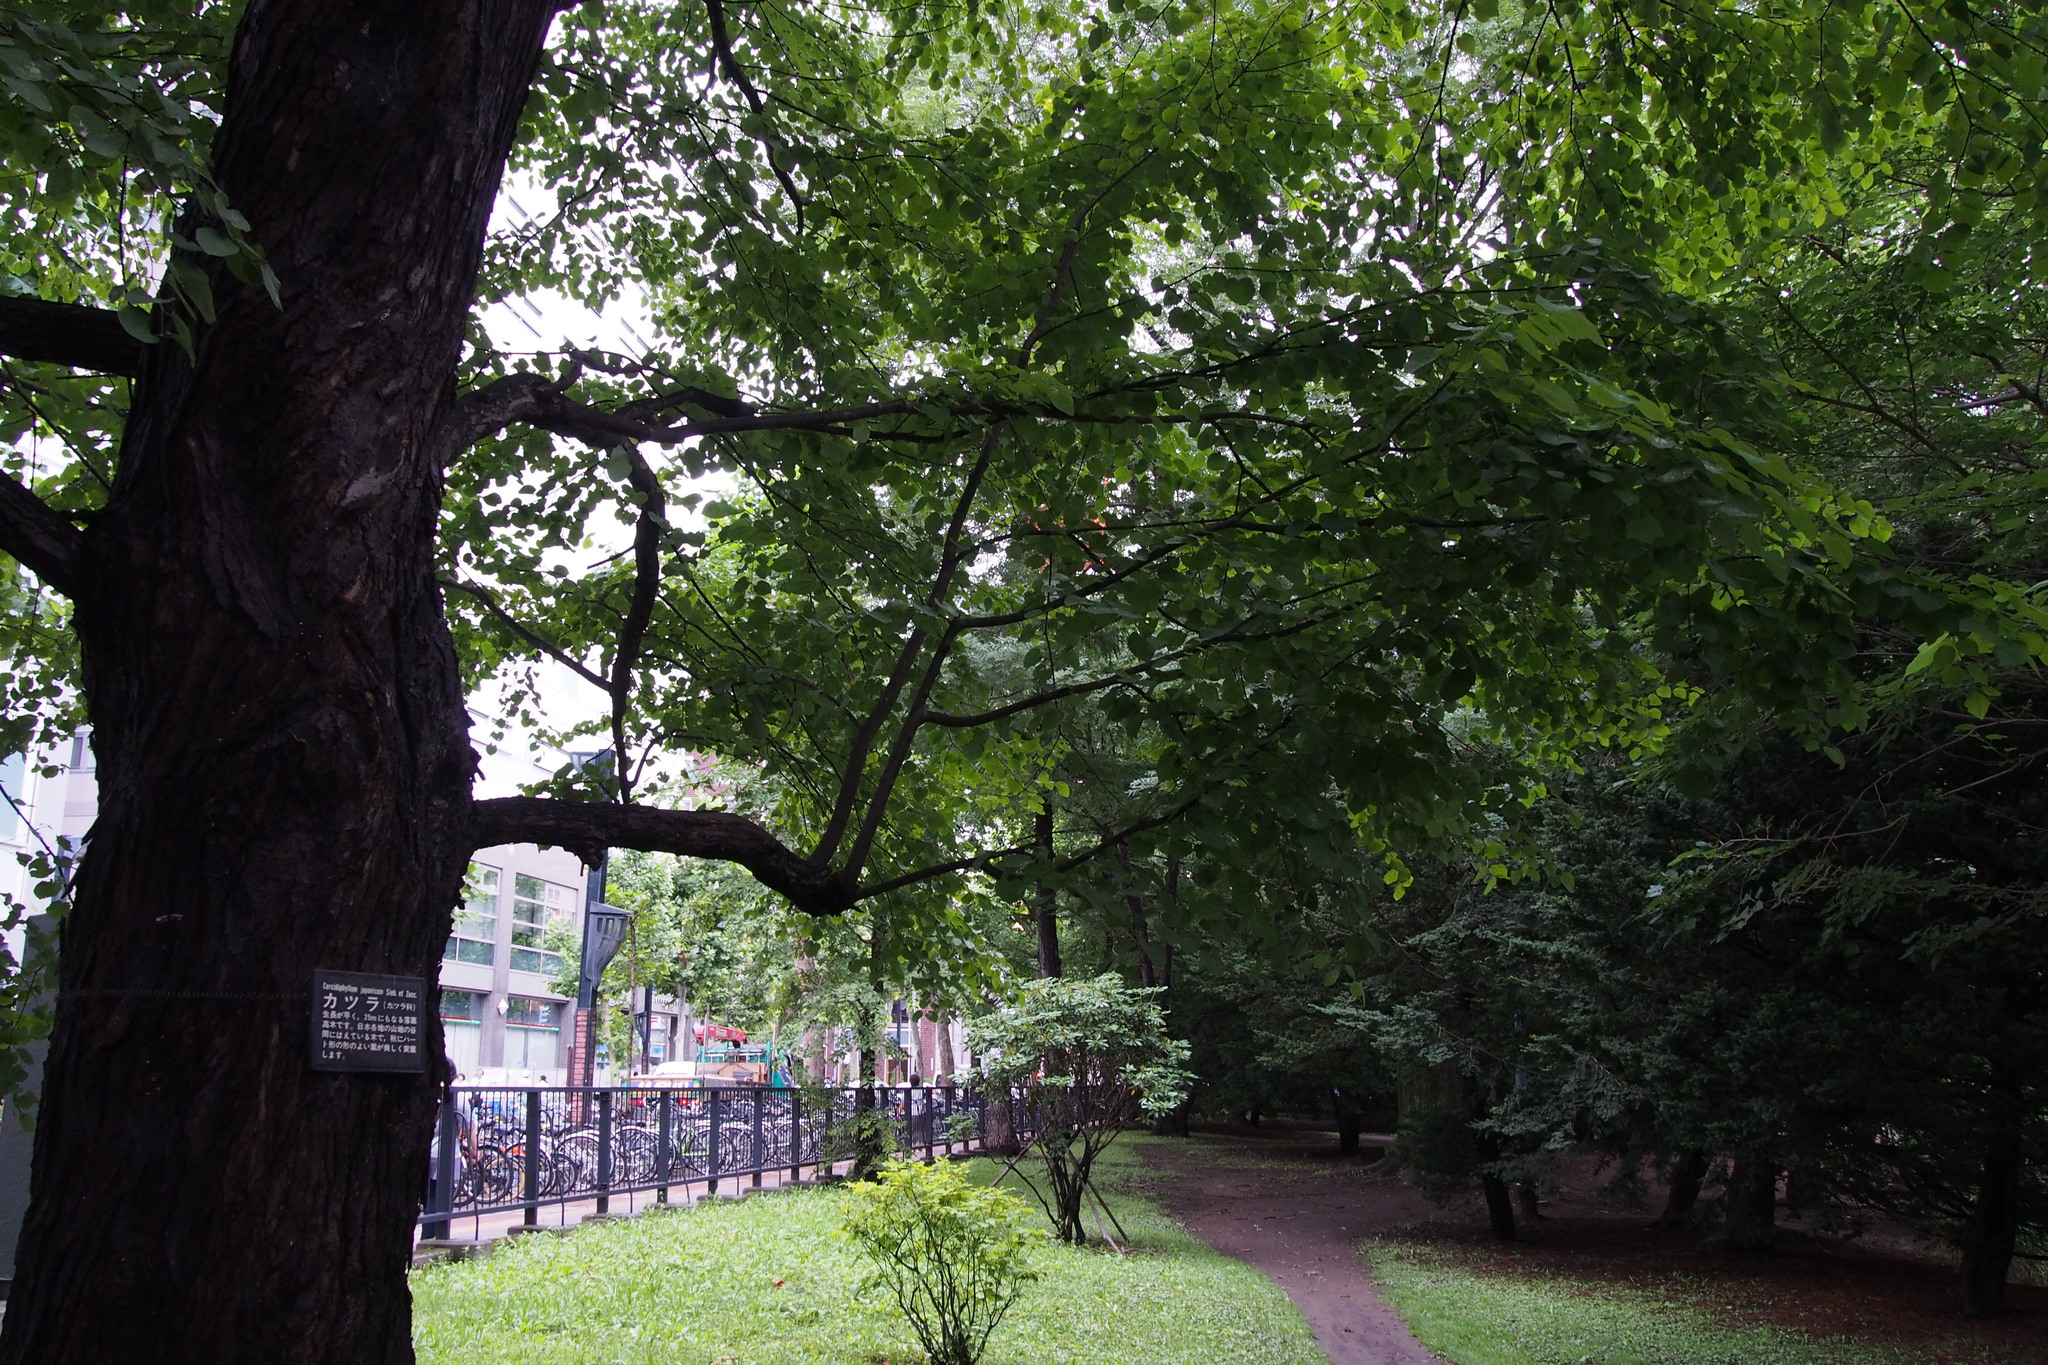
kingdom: Plantae
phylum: Tracheophyta
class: Magnoliopsida
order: Saxifragales
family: Cercidiphyllaceae
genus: Cercidiphyllum
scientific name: Cercidiphyllum japonicum
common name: Katsura tree
